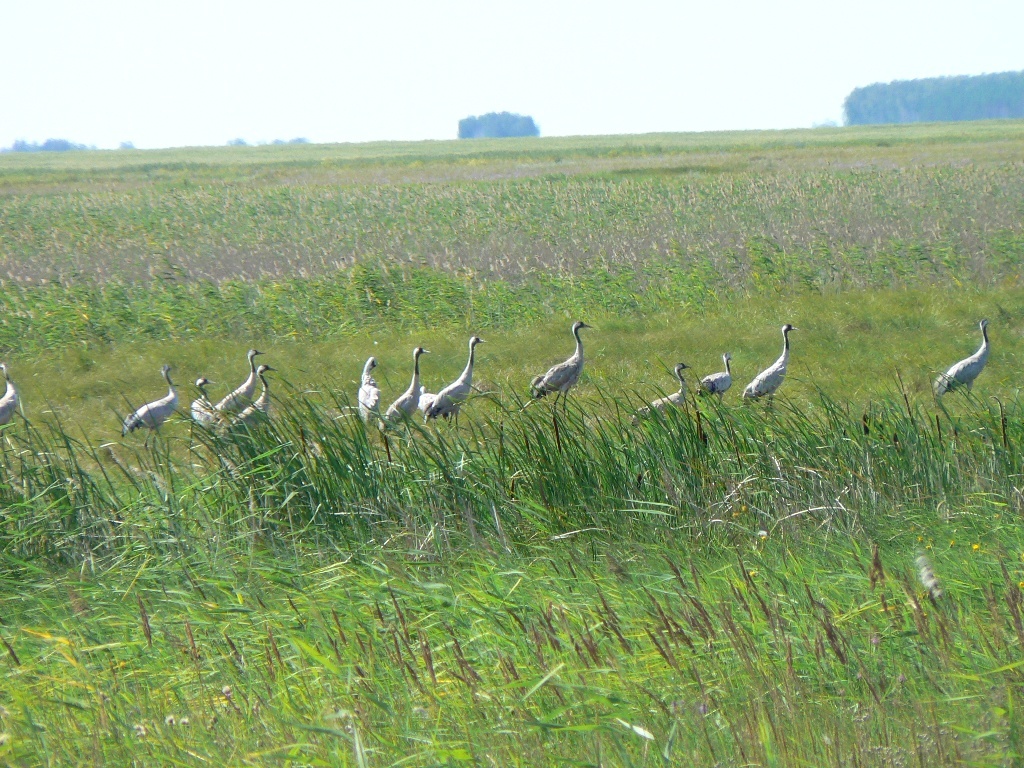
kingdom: Animalia
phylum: Chordata
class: Aves
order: Gruiformes
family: Gruidae
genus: Grus
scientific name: Grus grus
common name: Common crane
